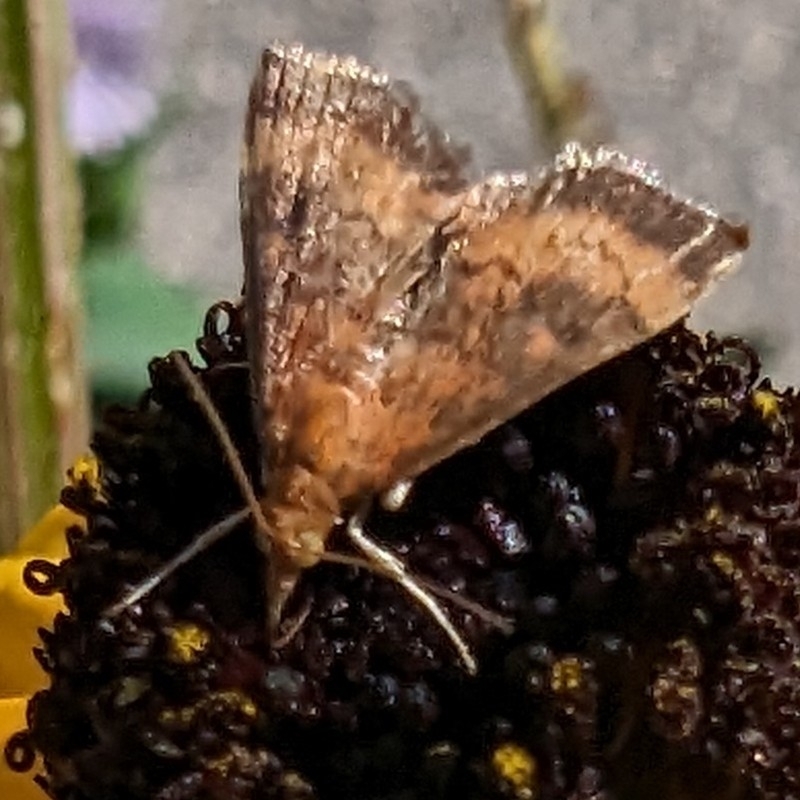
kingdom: Animalia
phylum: Arthropoda
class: Insecta
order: Lepidoptera
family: Crambidae
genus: Pyrausta
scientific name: Pyrausta rubricalis
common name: Variable reddish pyrausta
